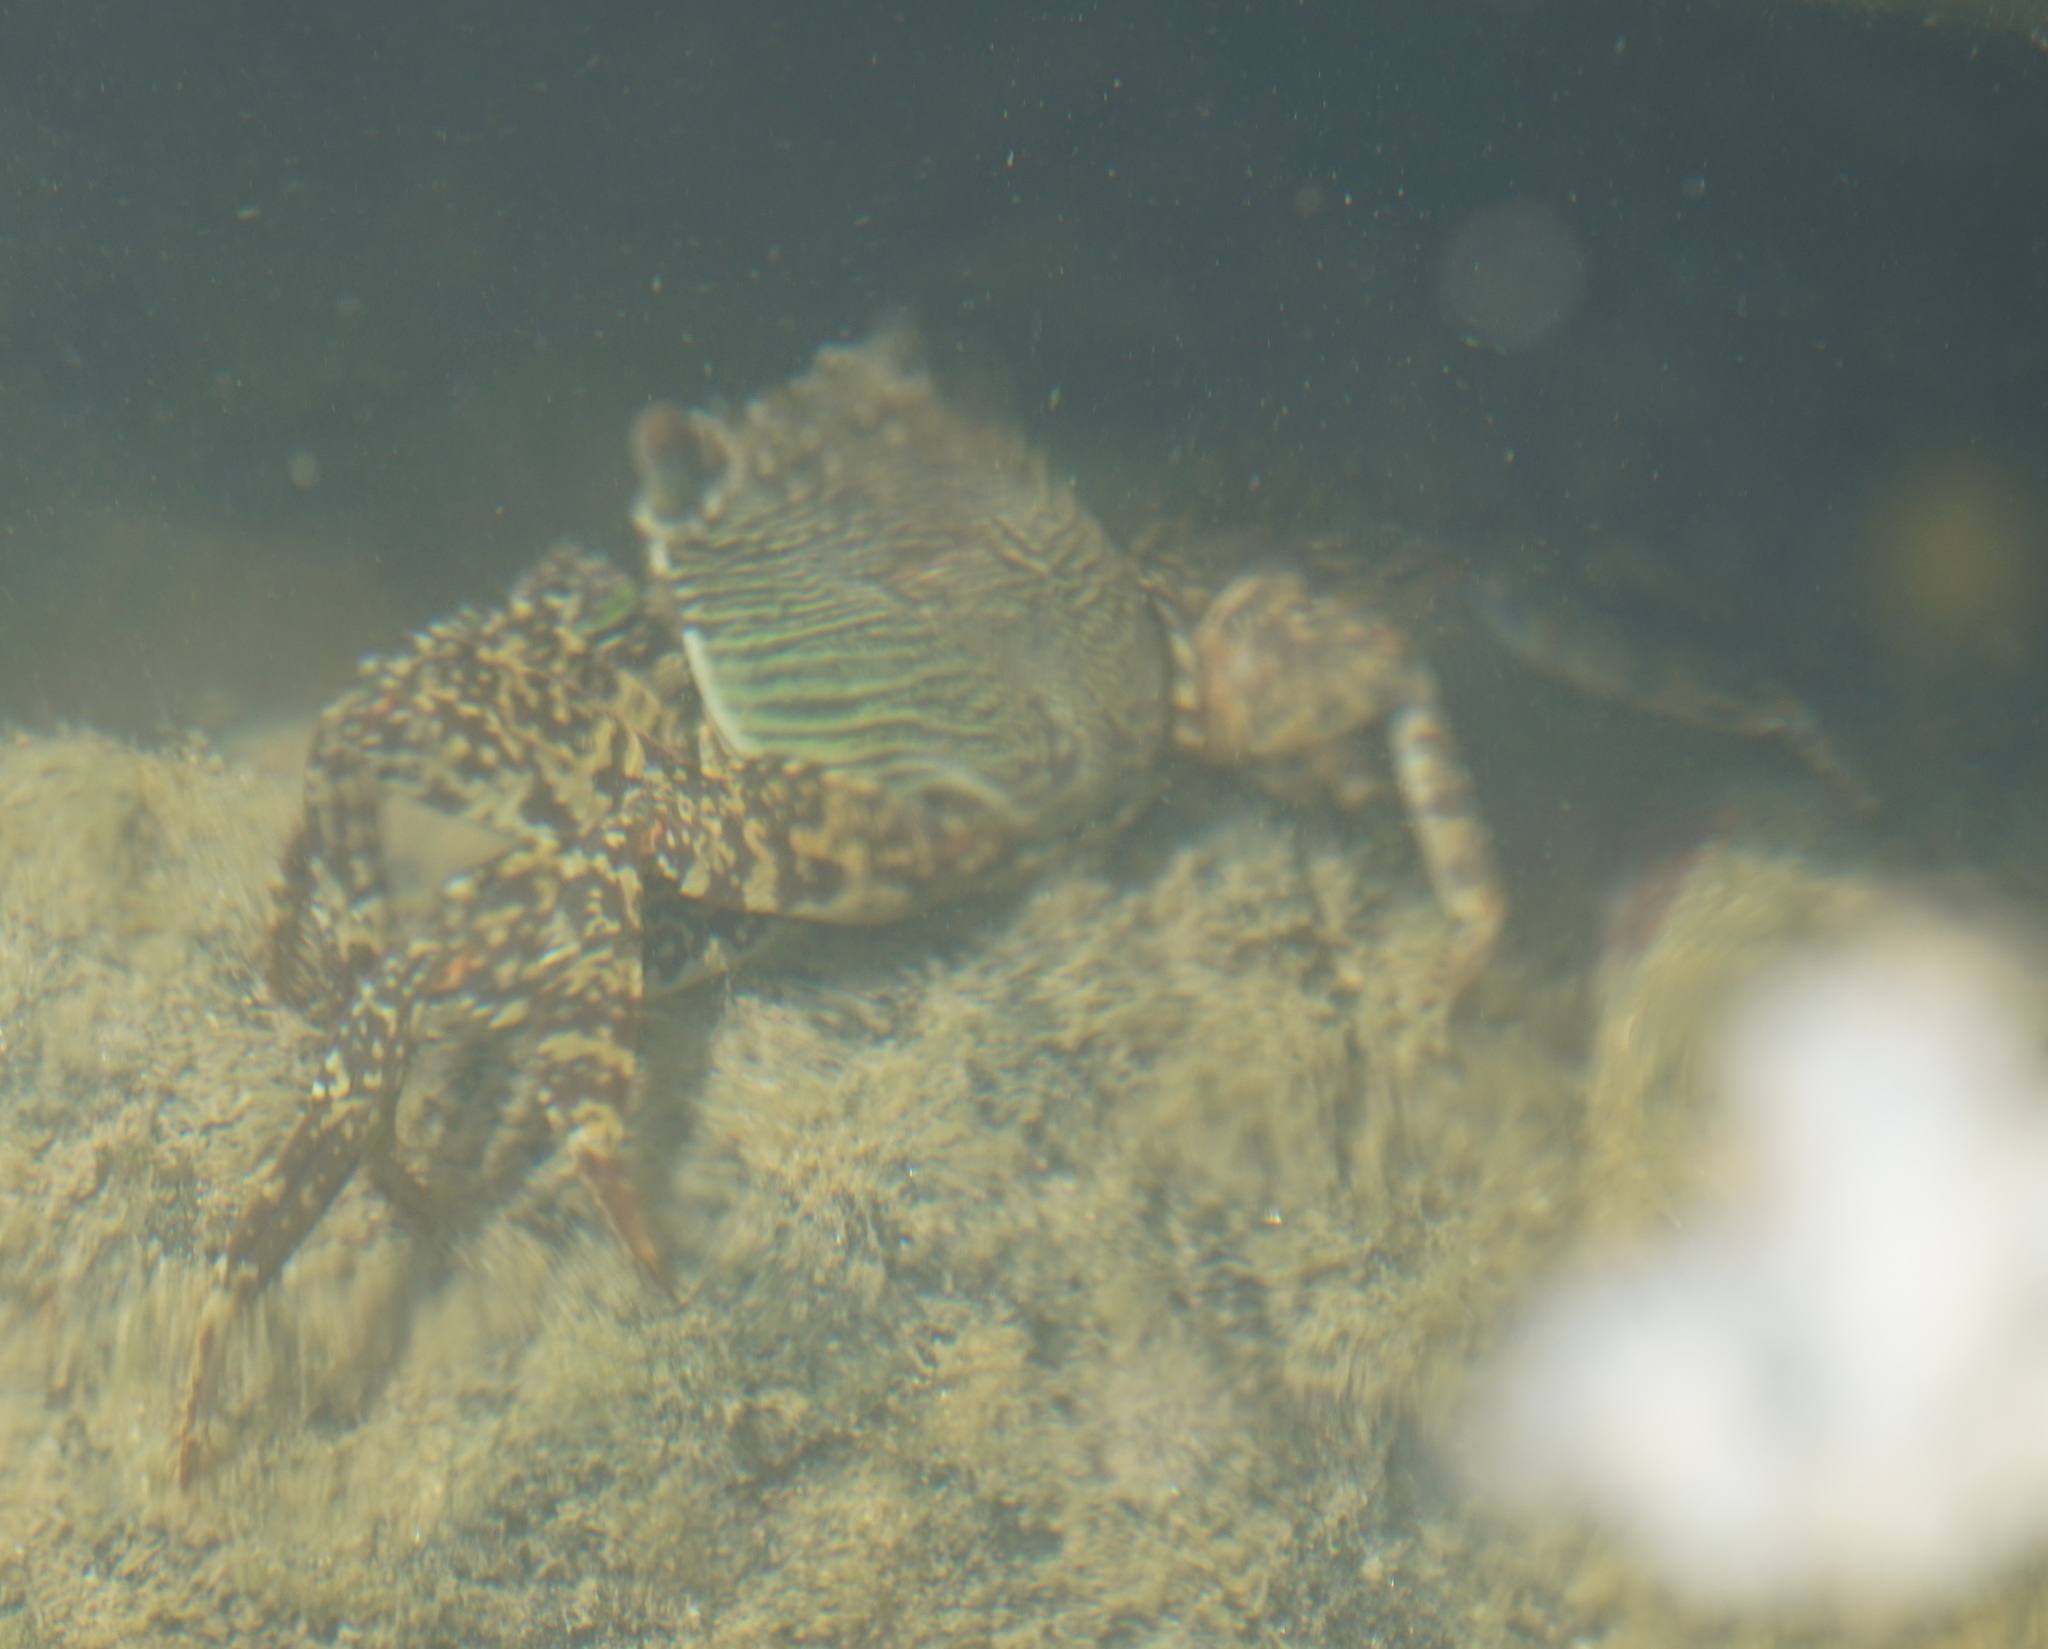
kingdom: Animalia
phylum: Arthropoda
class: Malacostraca
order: Decapoda
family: Grapsidae
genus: Grapsus
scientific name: Grapsus albolineatus
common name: Mottled lightfoot crab
